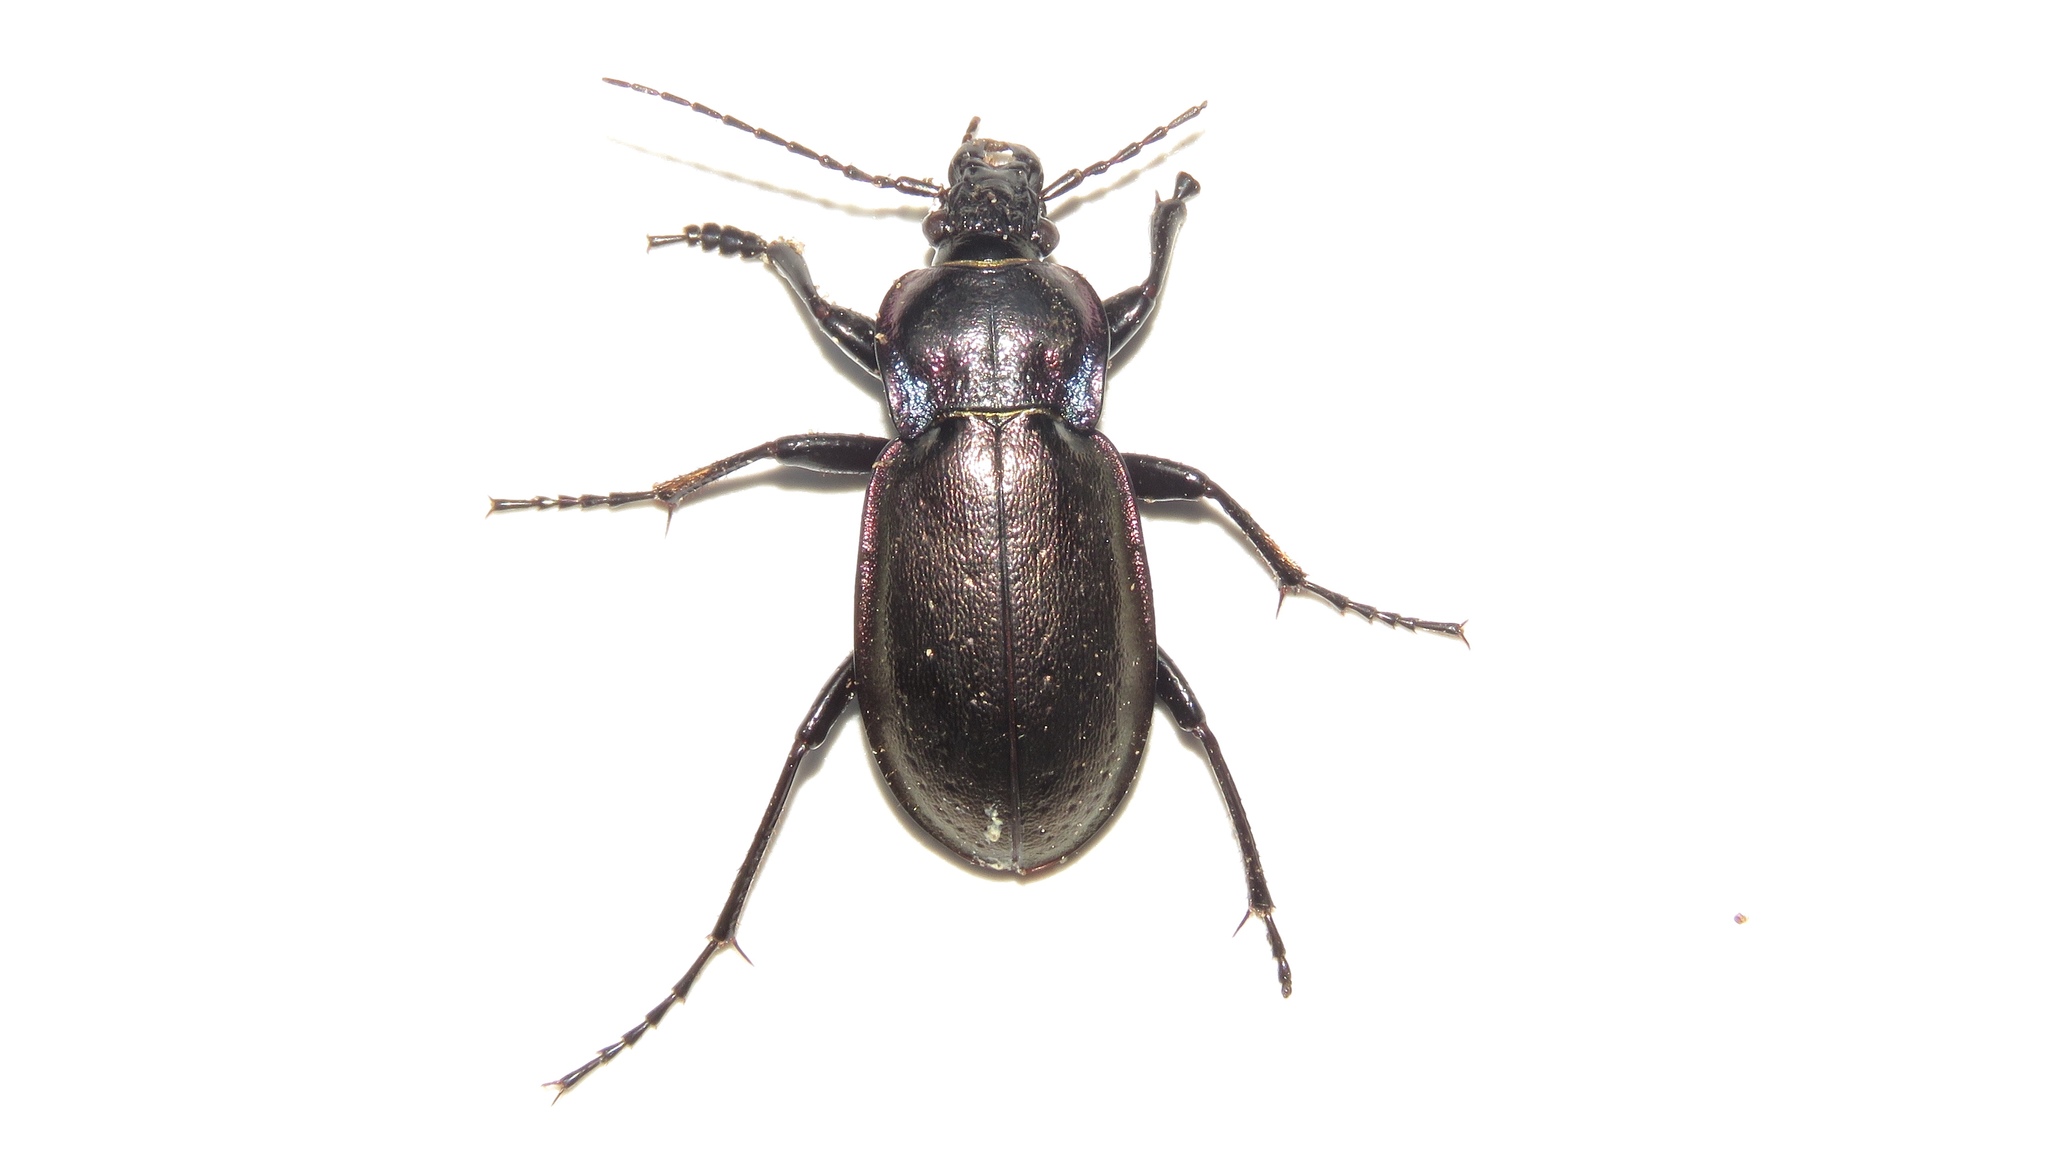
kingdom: Animalia
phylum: Arthropoda
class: Insecta
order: Coleoptera
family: Carabidae
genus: Carabus
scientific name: Carabus nemoralis
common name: European ground beetle
